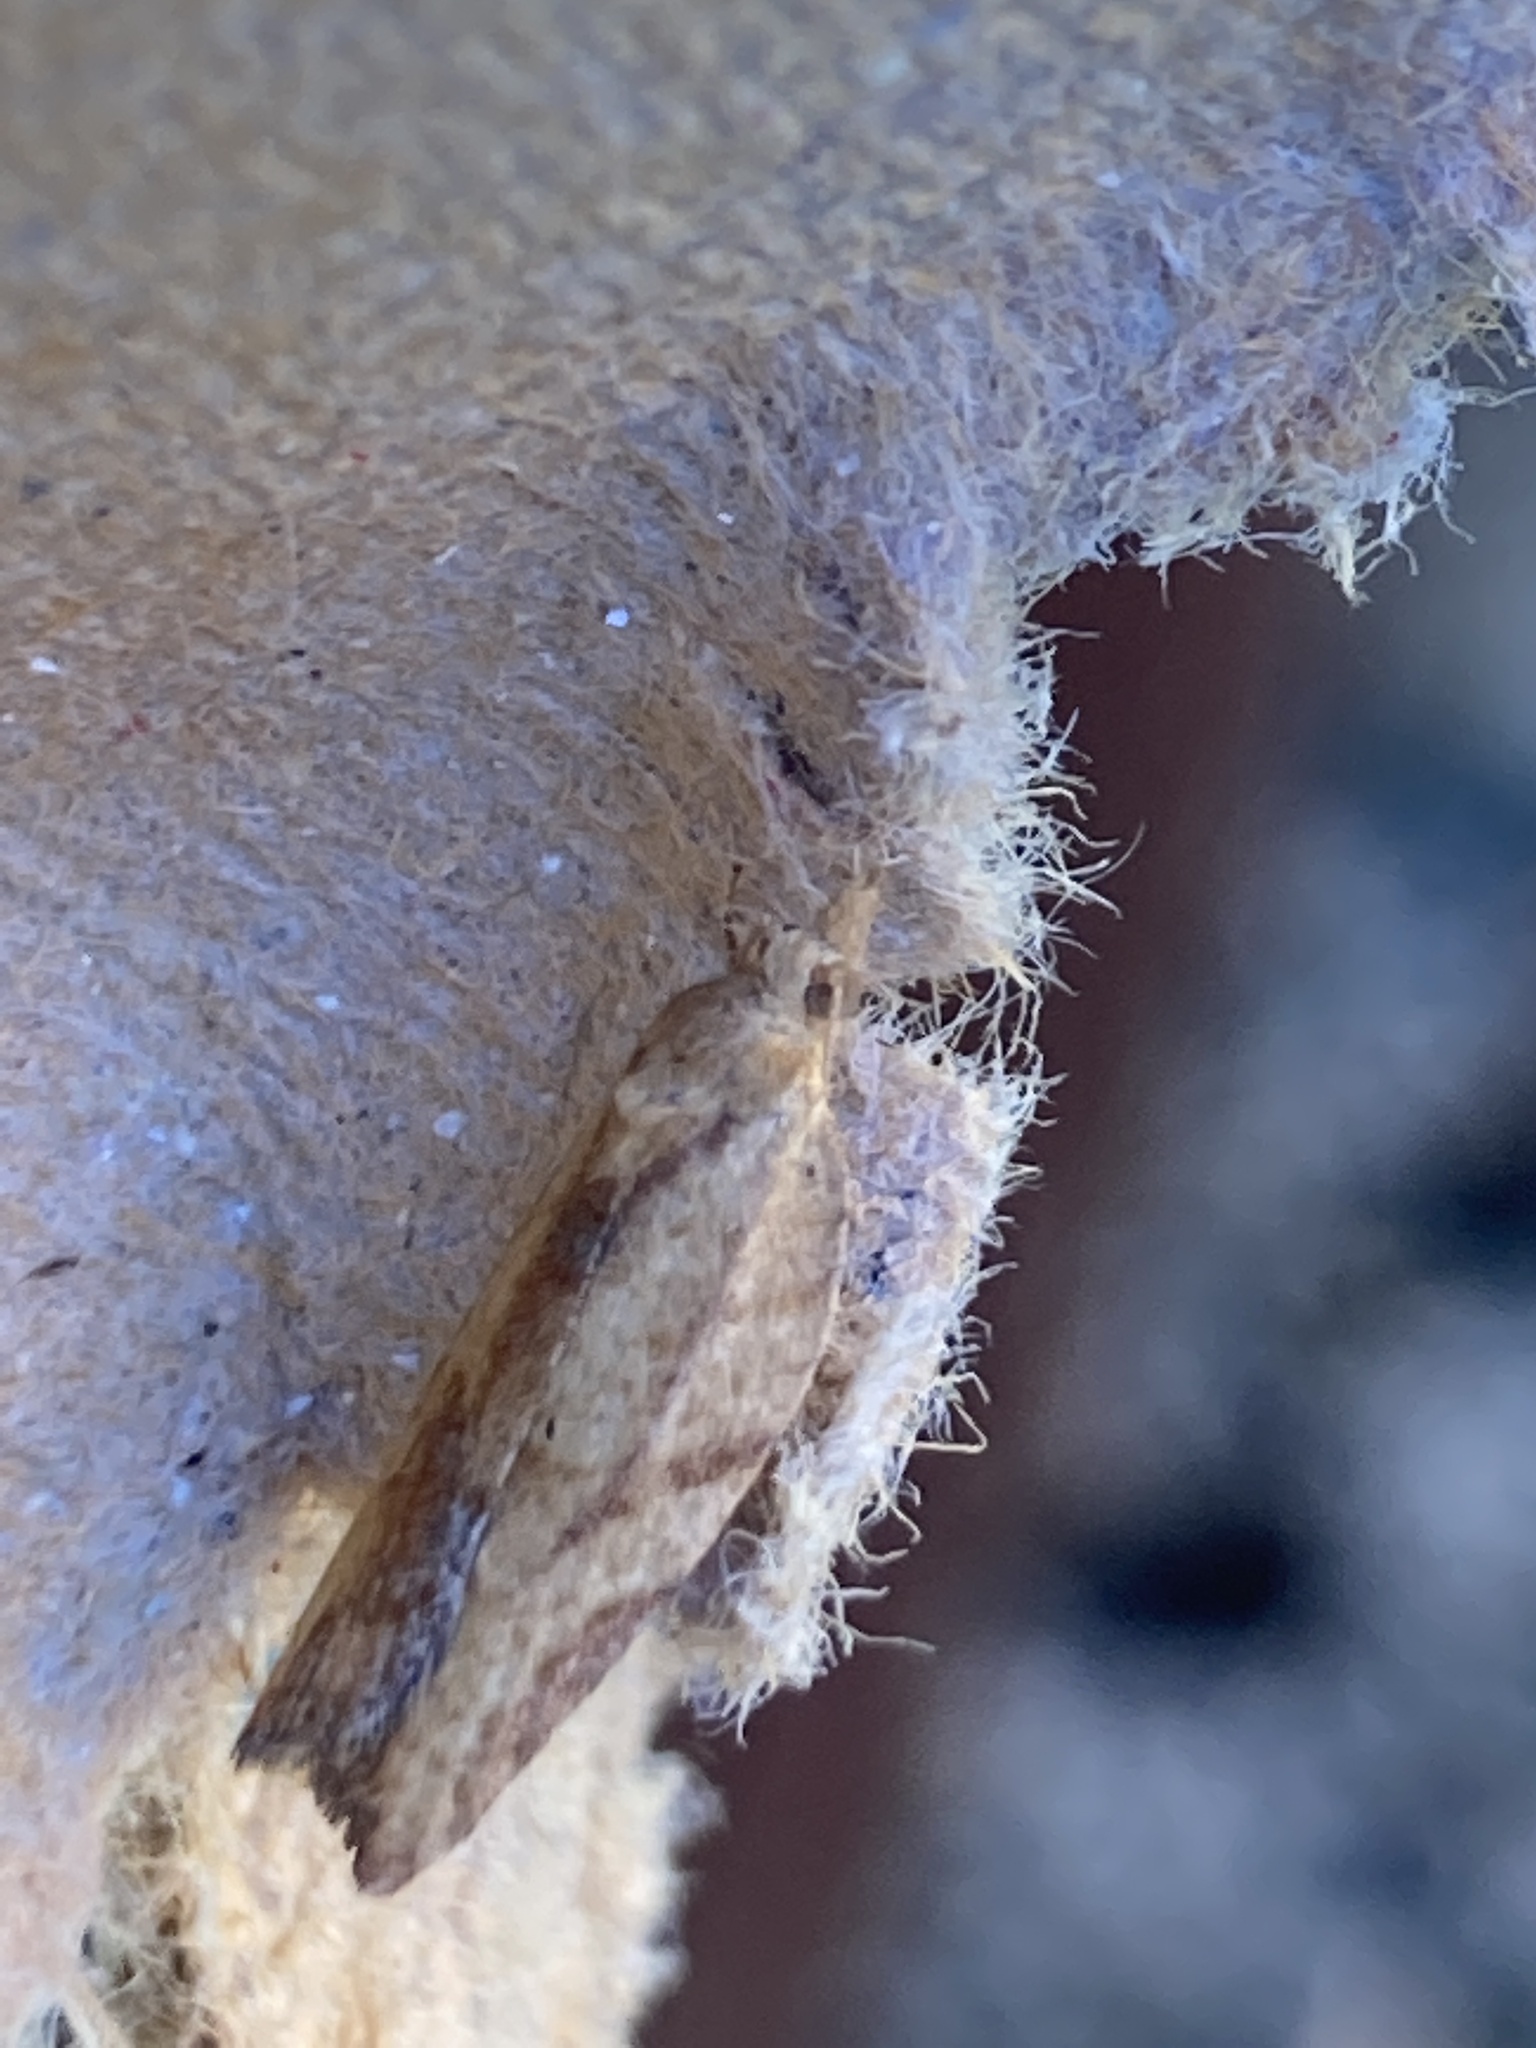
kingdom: Animalia
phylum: Arthropoda
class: Insecta
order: Lepidoptera
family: Tortricidae
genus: Epiphyas
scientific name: Epiphyas postvittana
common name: Light brown apple moth
